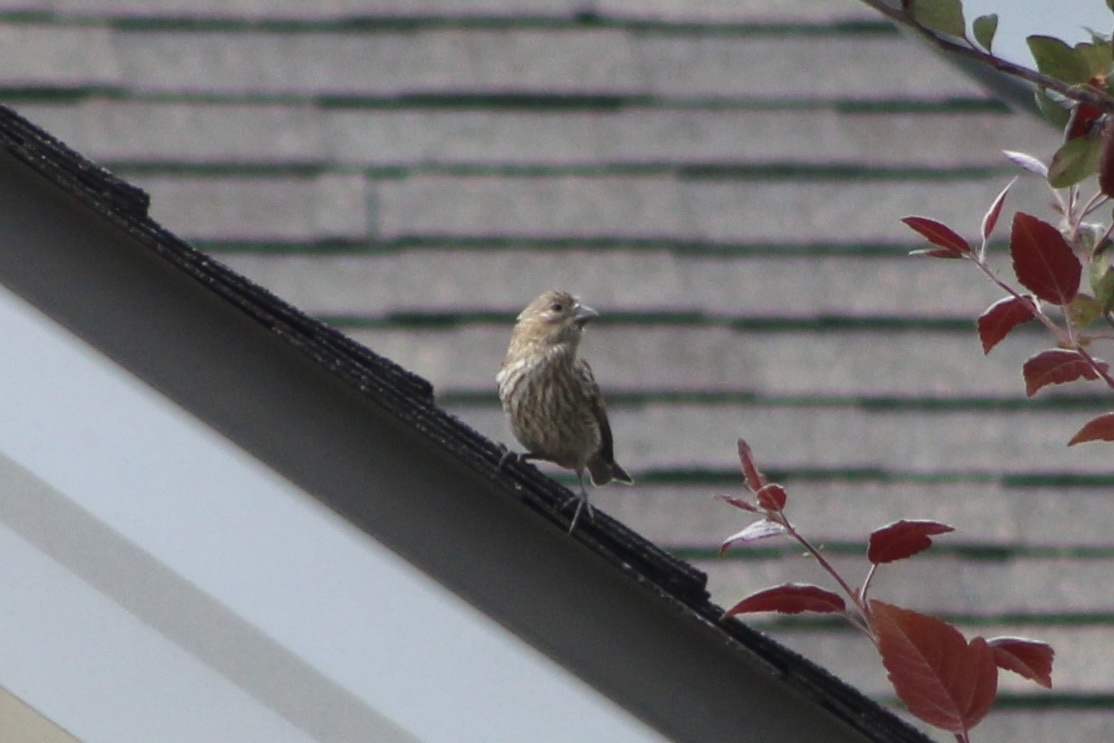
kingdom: Animalia
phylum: Chordata
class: Aves
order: Passeriformes
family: Fringillidae
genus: Haemorhous
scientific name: Haemorhous mexicanus
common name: House finch
